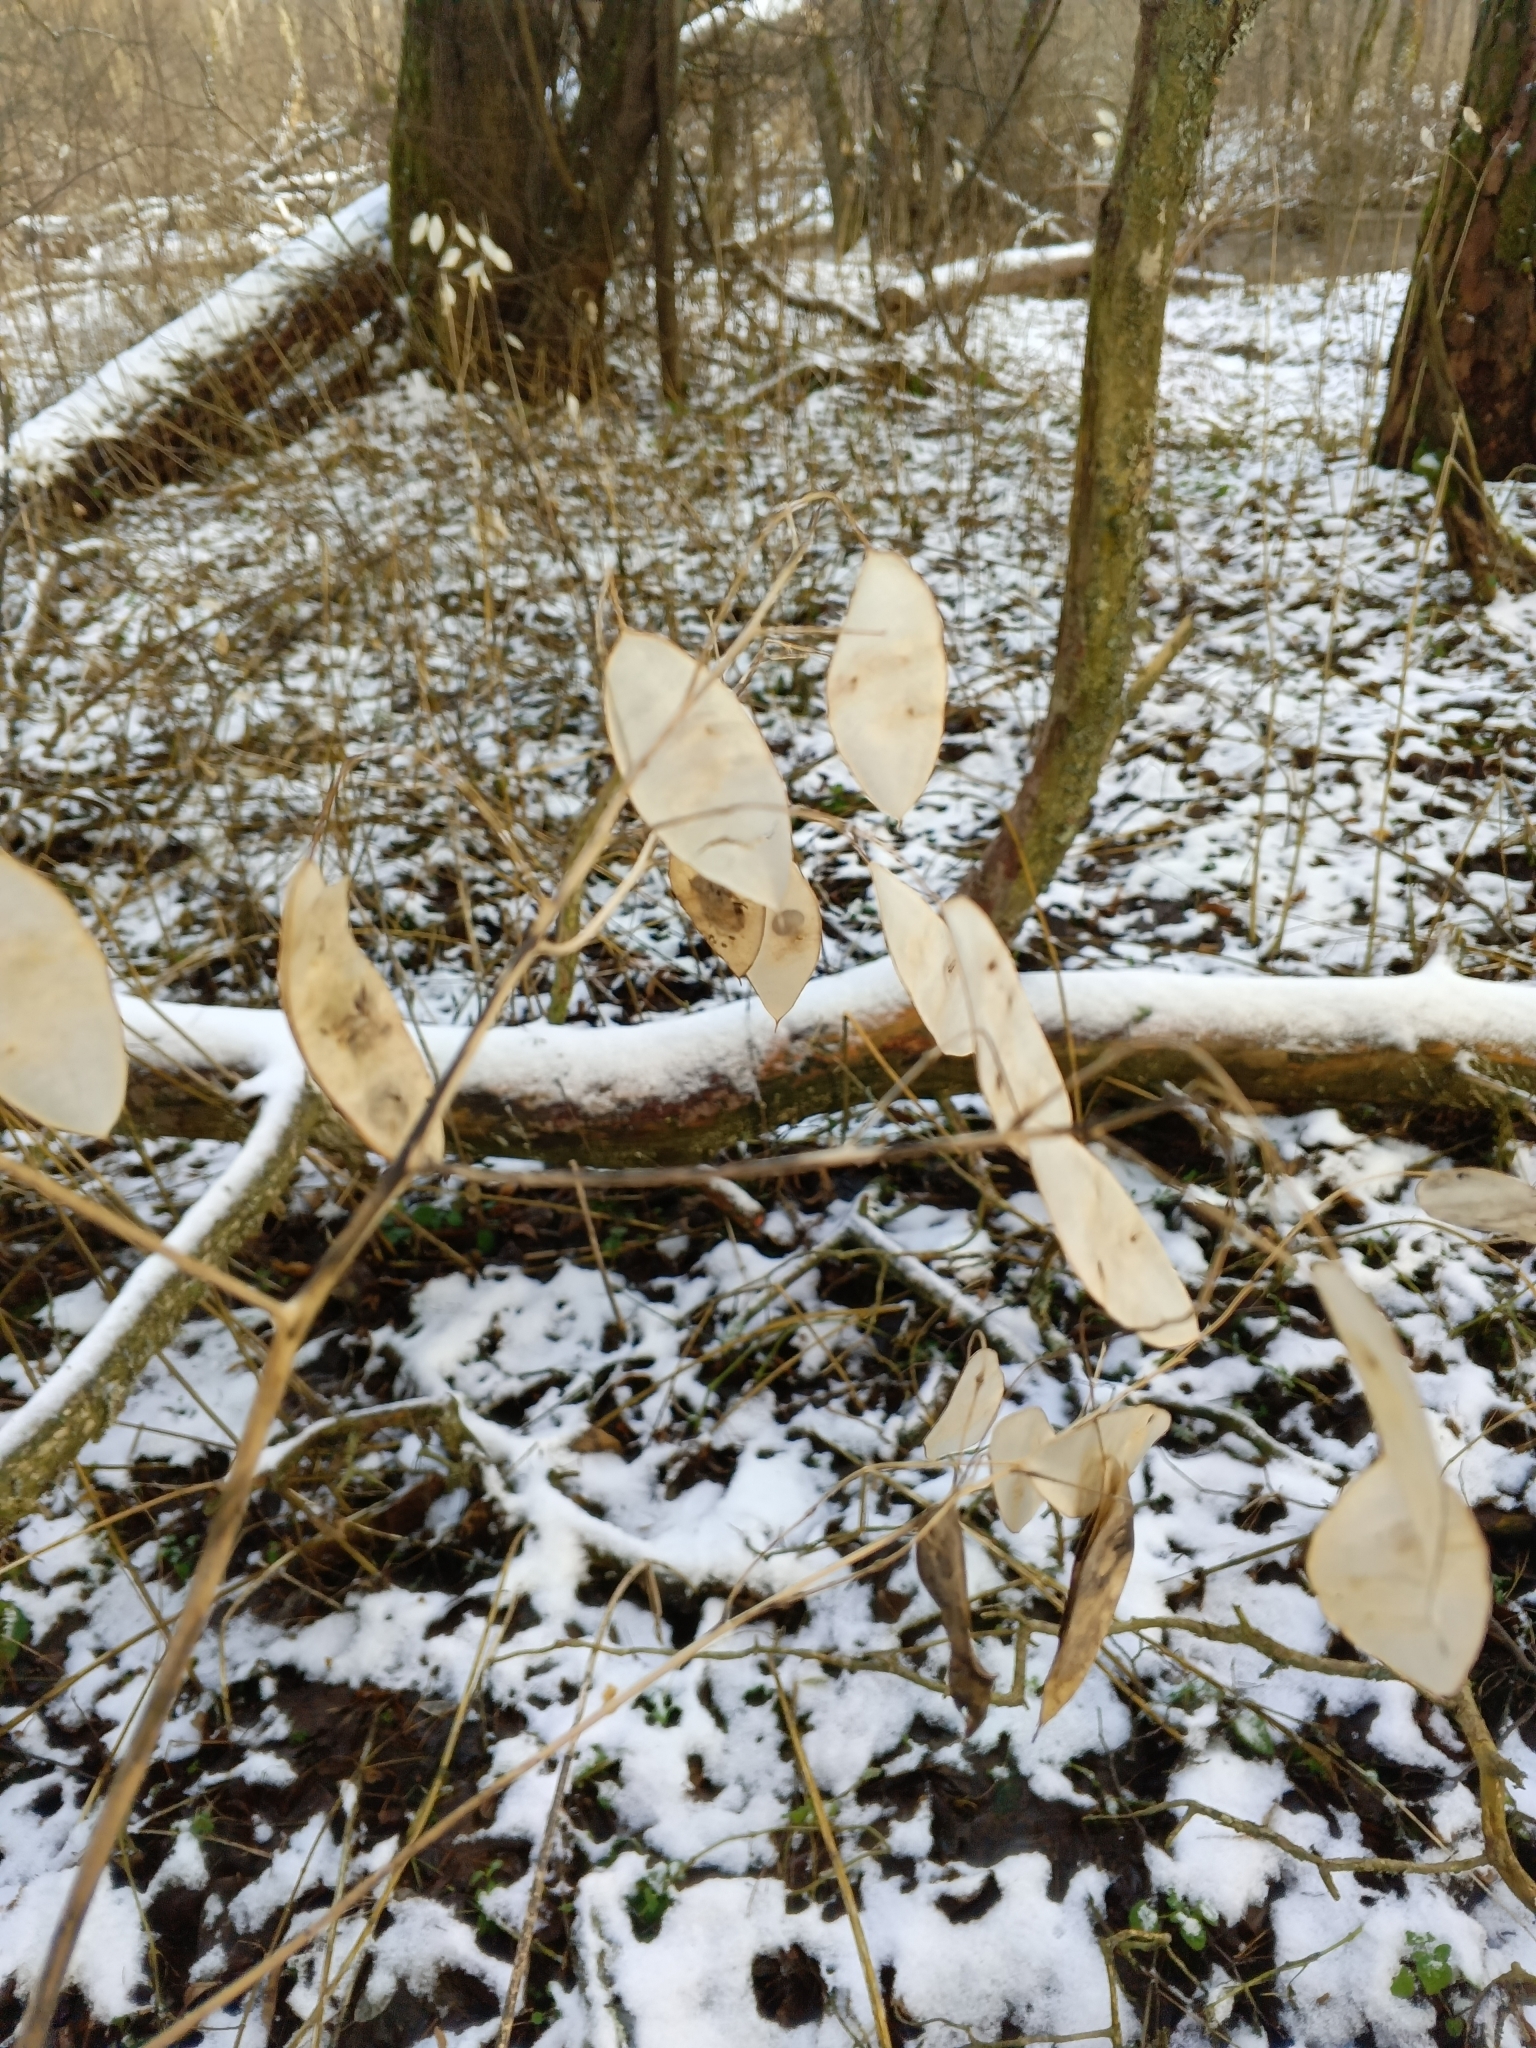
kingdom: Plantae
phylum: Tracheophyta
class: Magnoliopsida
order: Brassicales
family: Brassicaceae
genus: Lunaria
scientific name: Lunaria rediviva
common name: Perennial honesty
